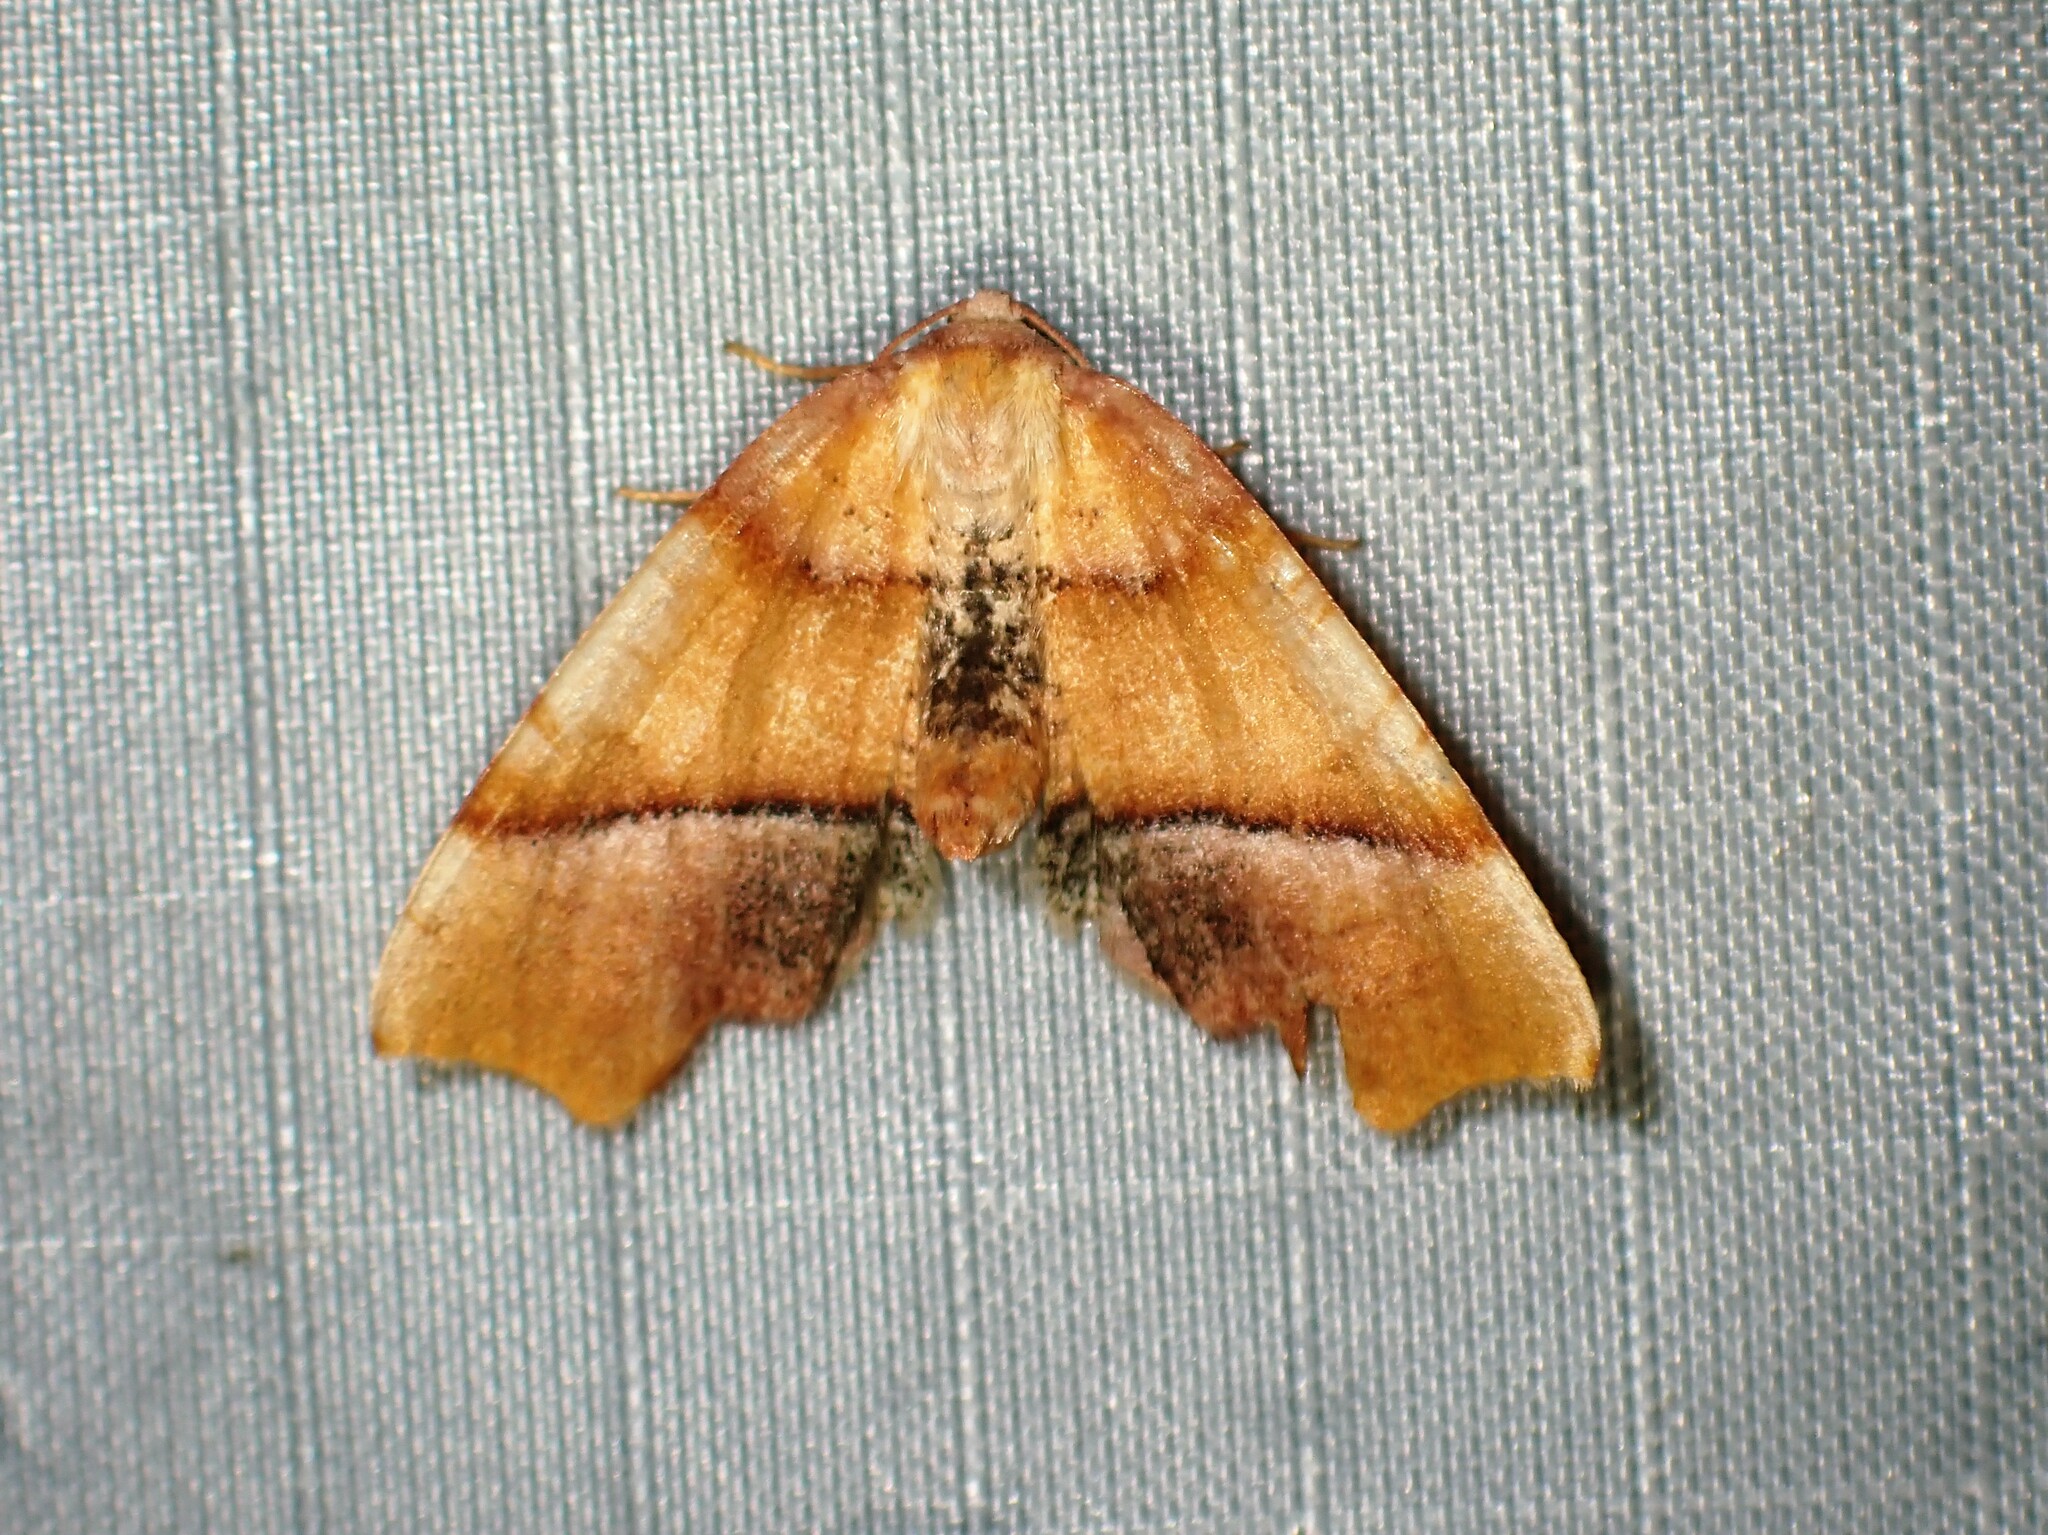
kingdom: Animalia
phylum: Arthropoda
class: Insecta
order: Lepidoptera
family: Geometridae
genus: Plagodis
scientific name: Plagodis phlogosaria
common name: Straight-lined plagodis
